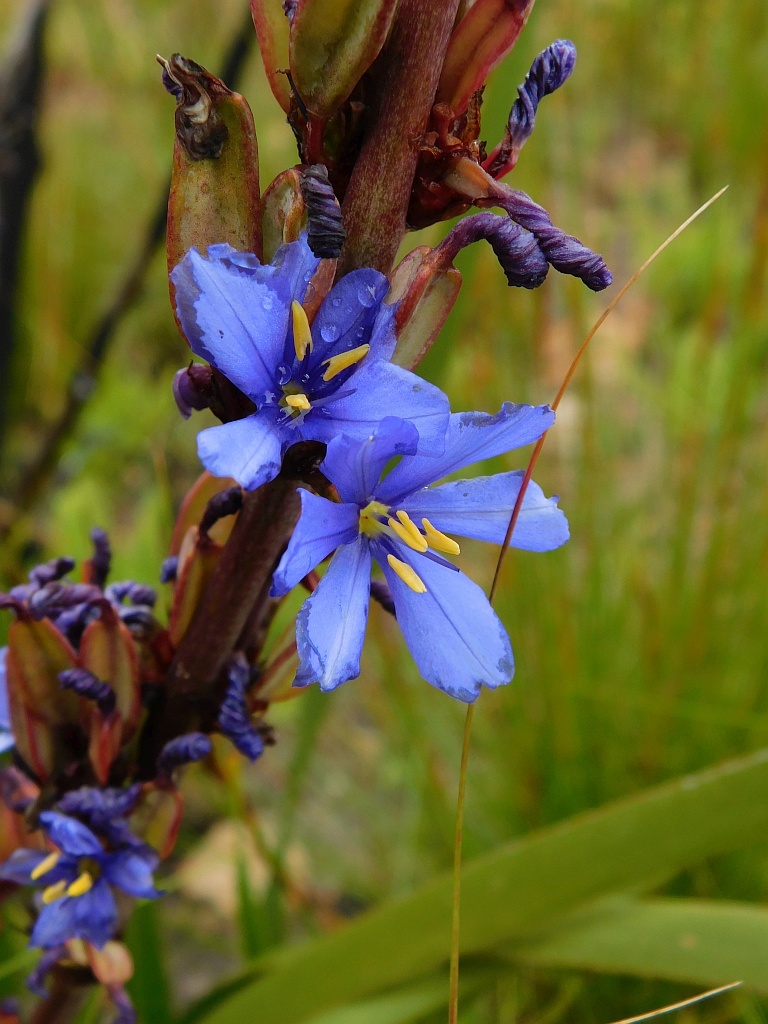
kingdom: Plantae
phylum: Tracheophyta
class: Liliopsida
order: Asparagales
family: Iridaceae
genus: Aristea
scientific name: Aristea bakeri
